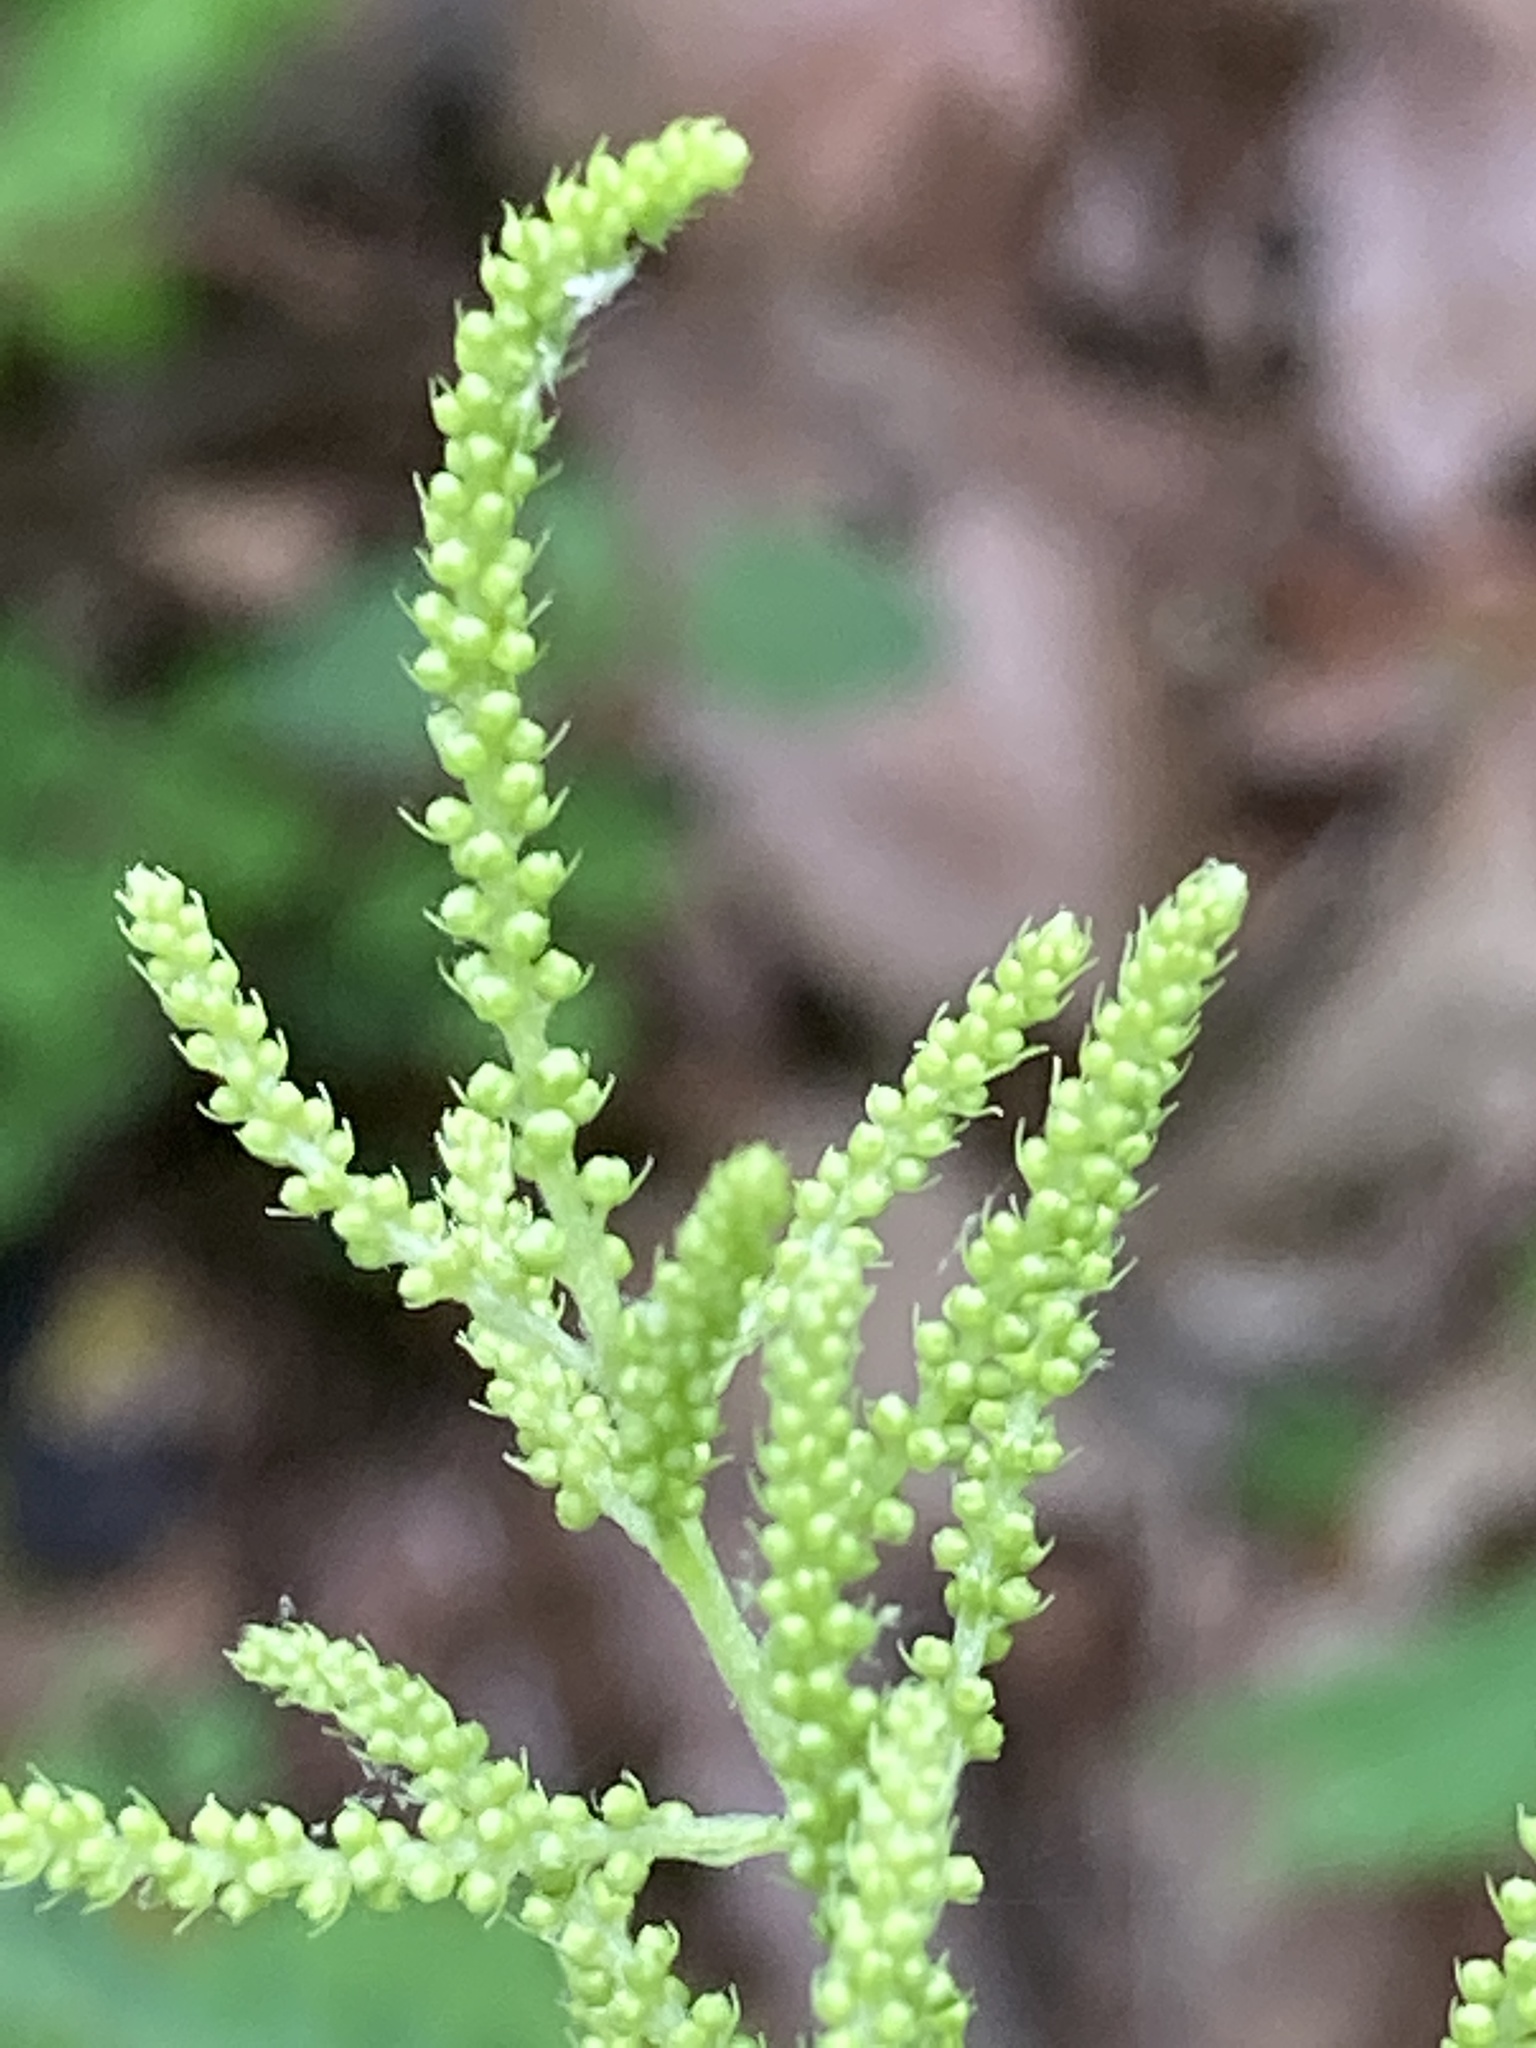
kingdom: Plantae
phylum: Tracheophyta
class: Magnoliopsida
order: Rosales
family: Rosaceae
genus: Aruncus
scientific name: Aruncus dioicus
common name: Buck's-beard
